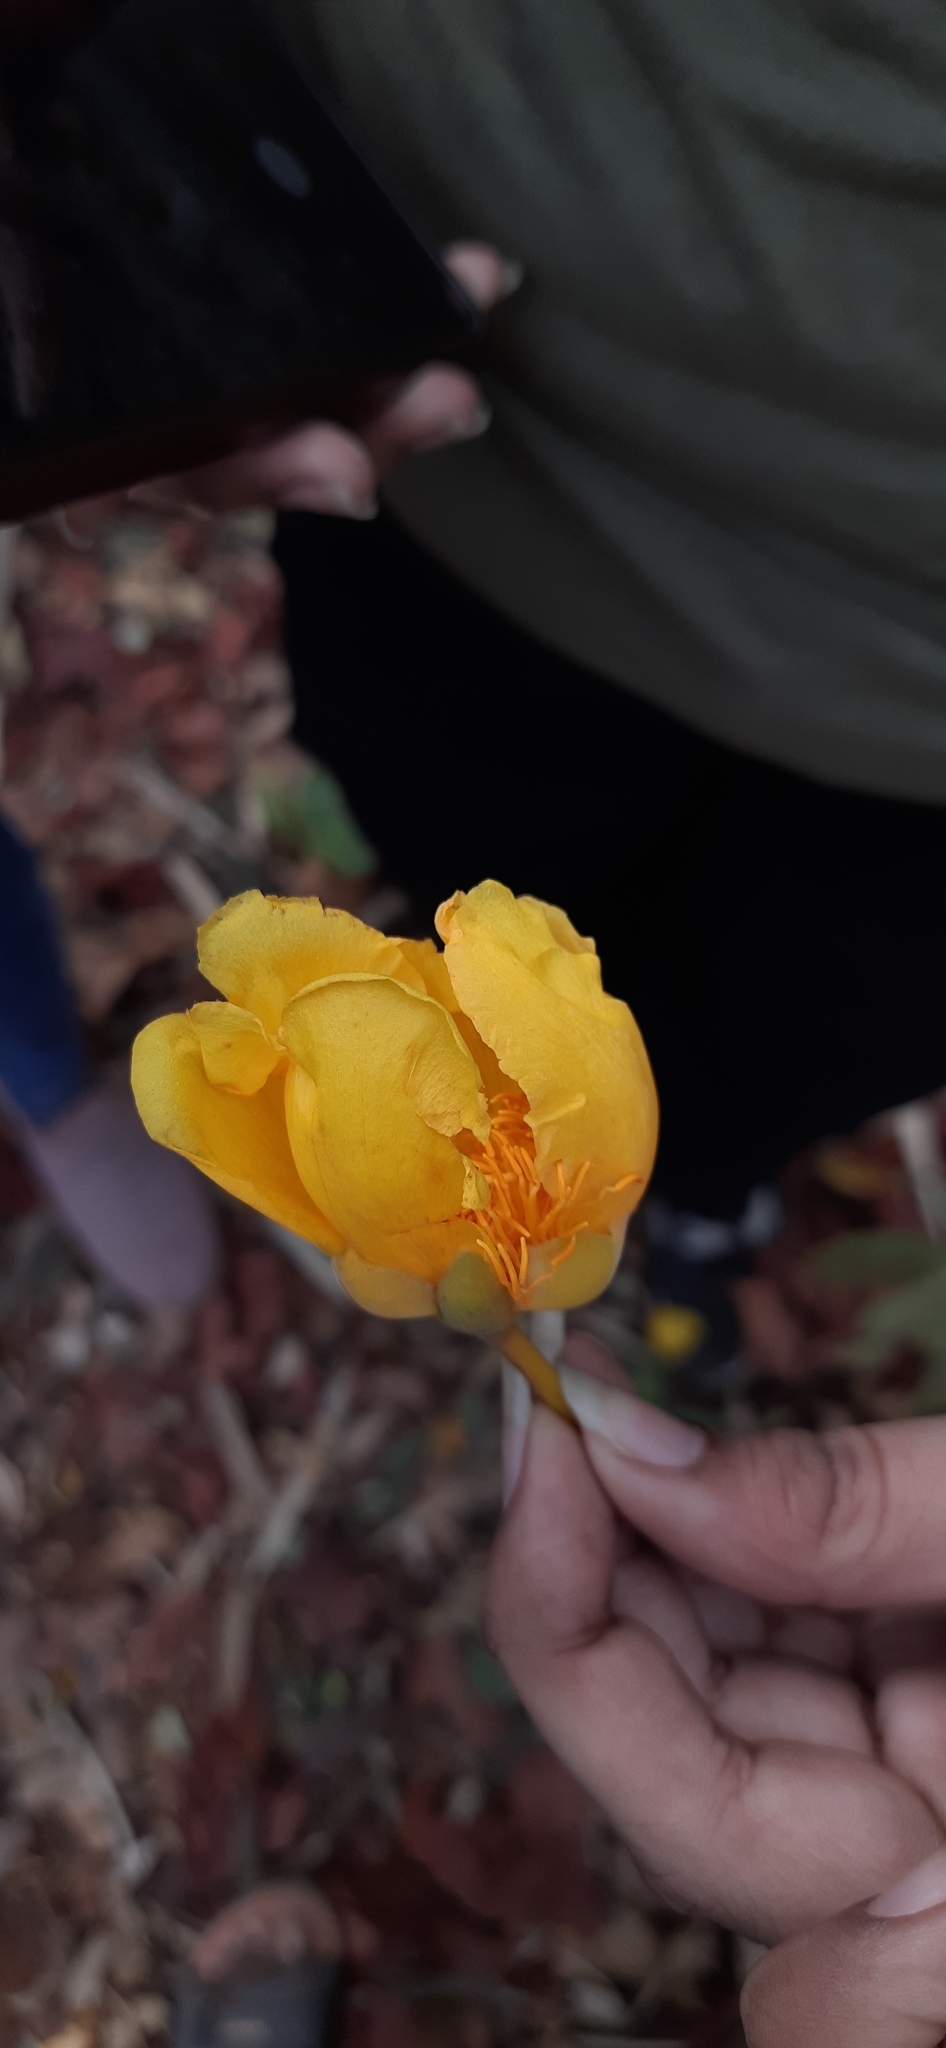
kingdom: Plantae
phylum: Tracheophyta
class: Magnoliopsida
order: Malvales
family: Cochlospermaceae
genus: Cochlospermum
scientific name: Cochlospermum religiosum
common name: Cottontree
